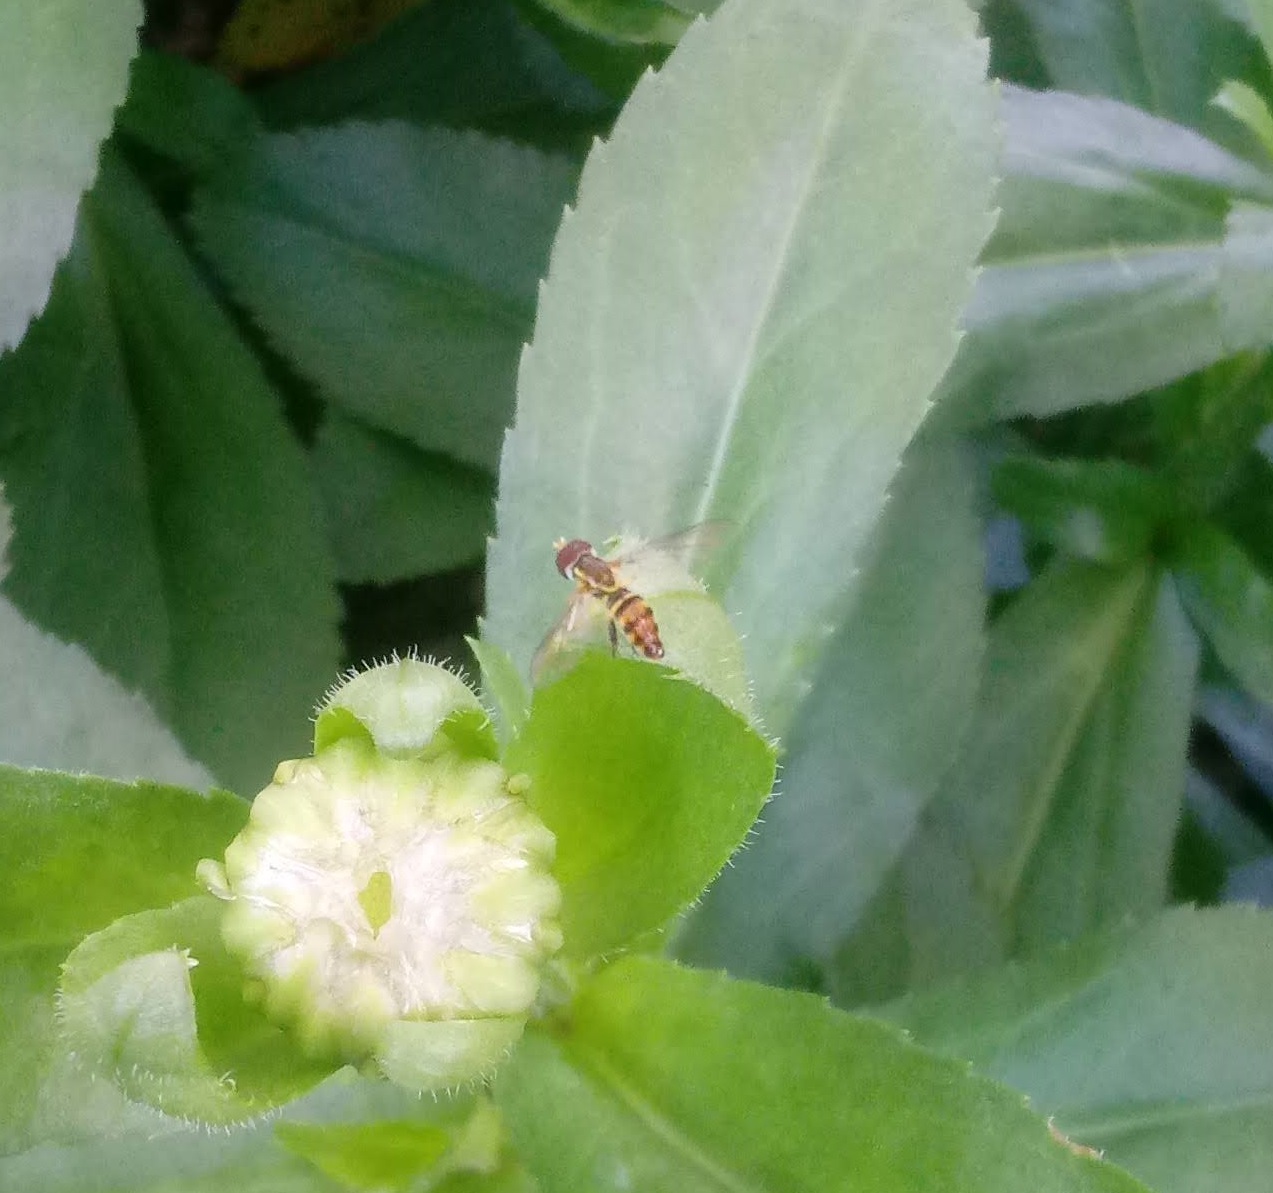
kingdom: Animalia
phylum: Arthropoda
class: Insecta
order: Diptera
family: Syrphidae
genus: Toxomerus
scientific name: Toxomerus geminatus
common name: Eastern calligrapher
